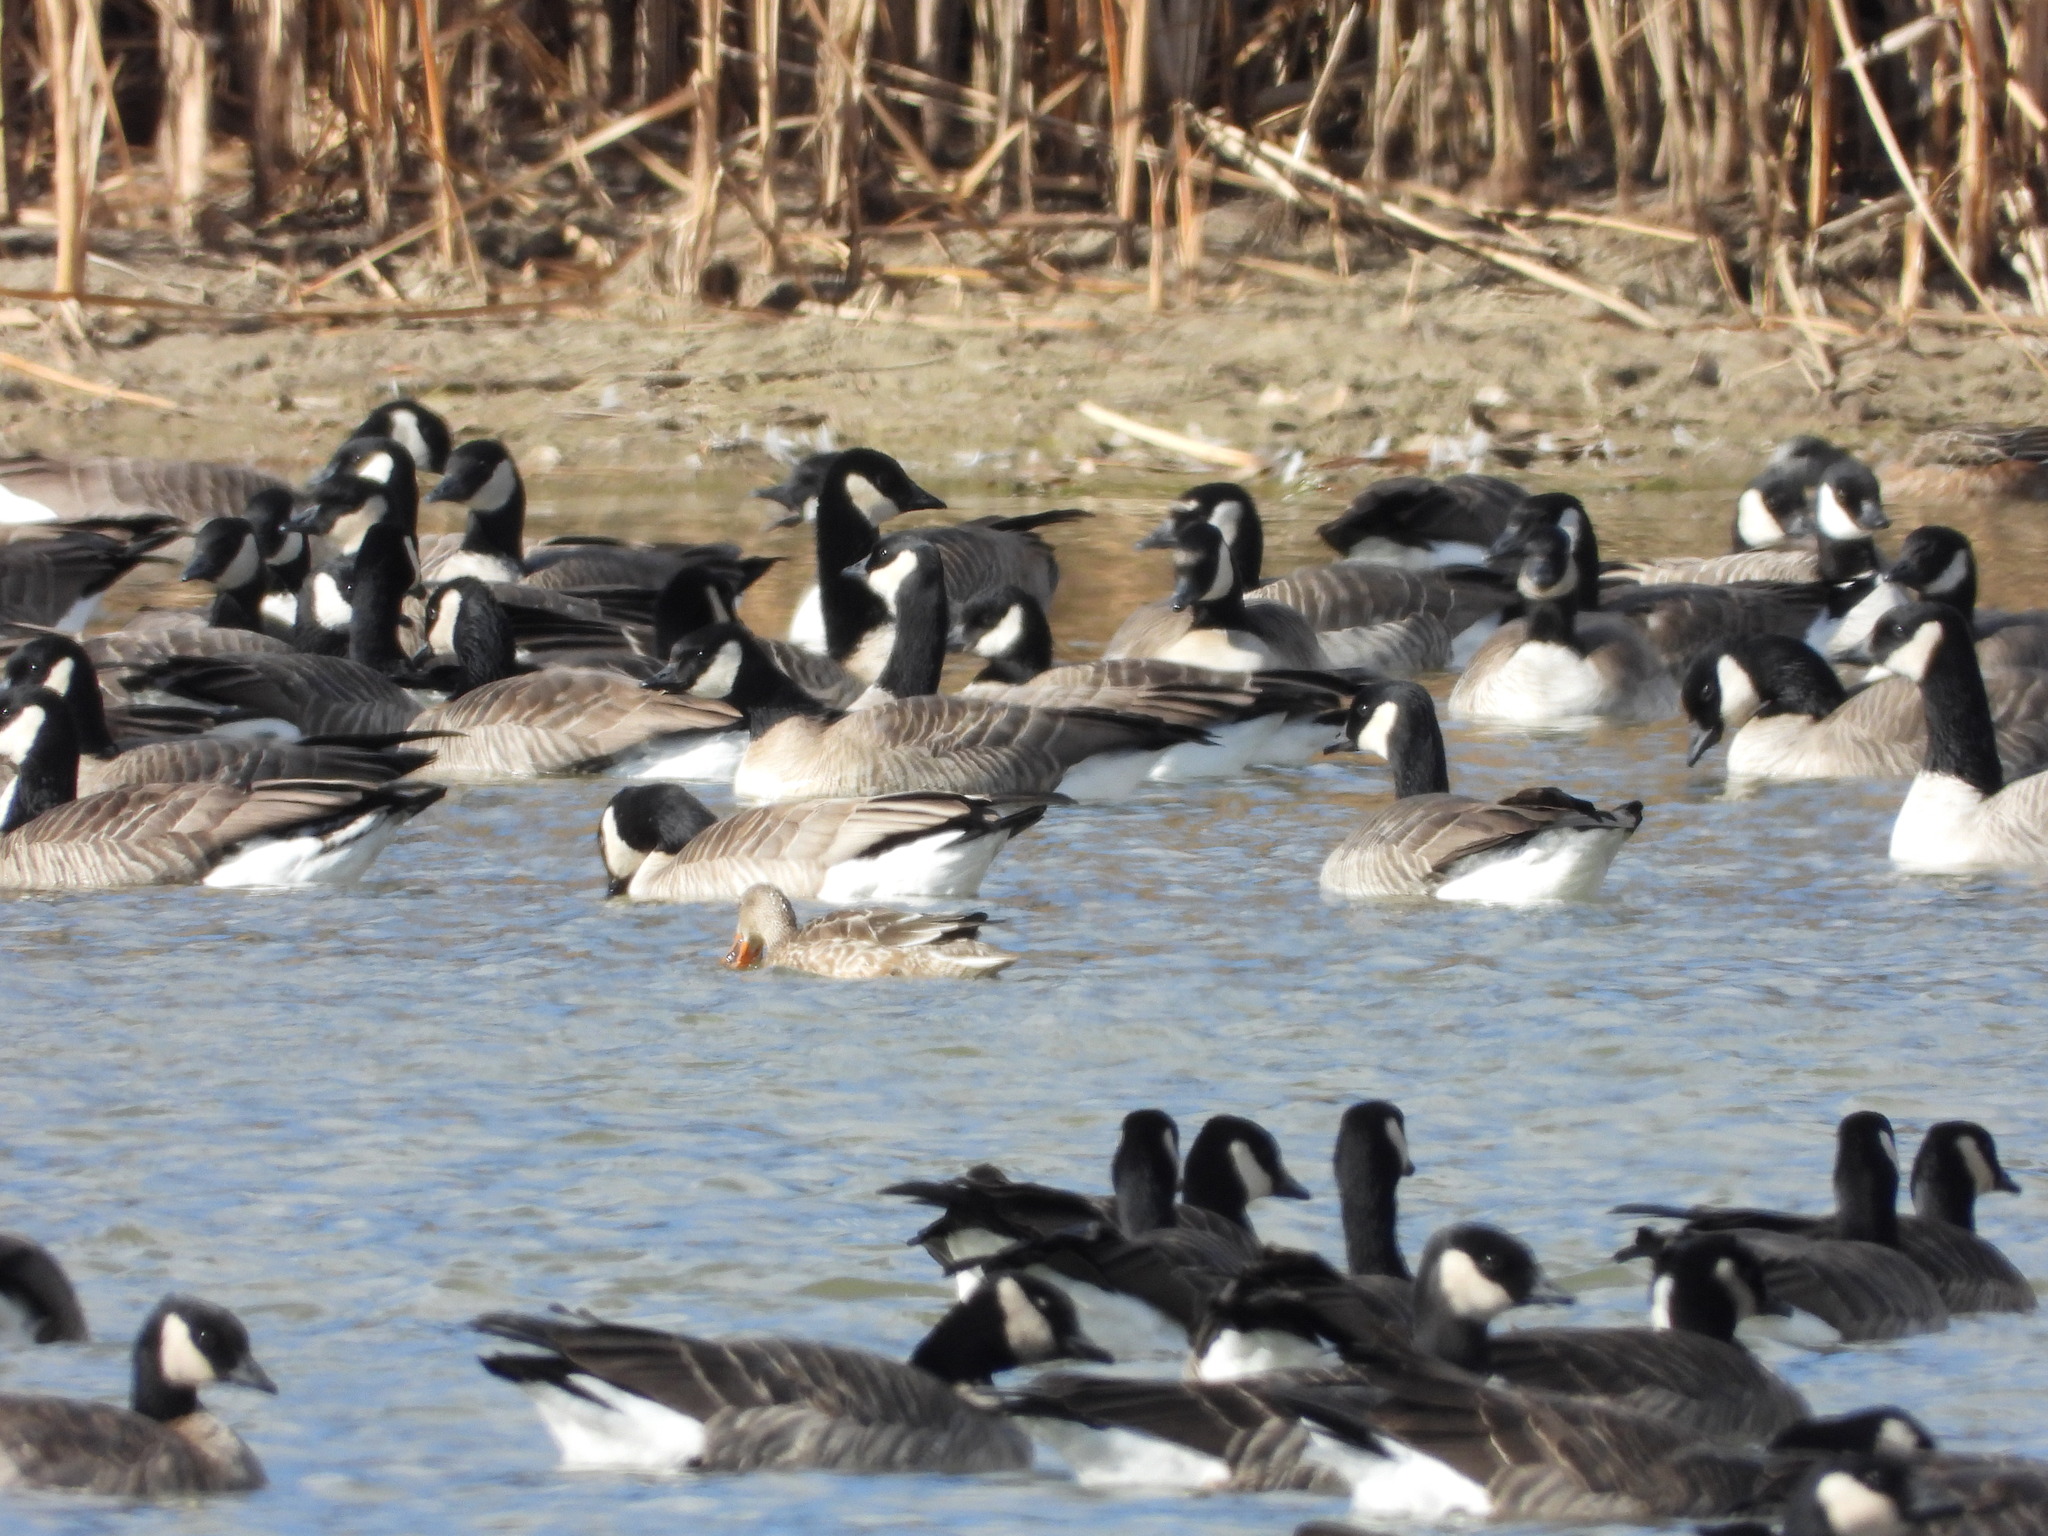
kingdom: Animalia
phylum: Chordata
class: Aves
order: Anseriformes
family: Anatidae
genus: Anas
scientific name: Anas platyrhynchos
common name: Mallard
